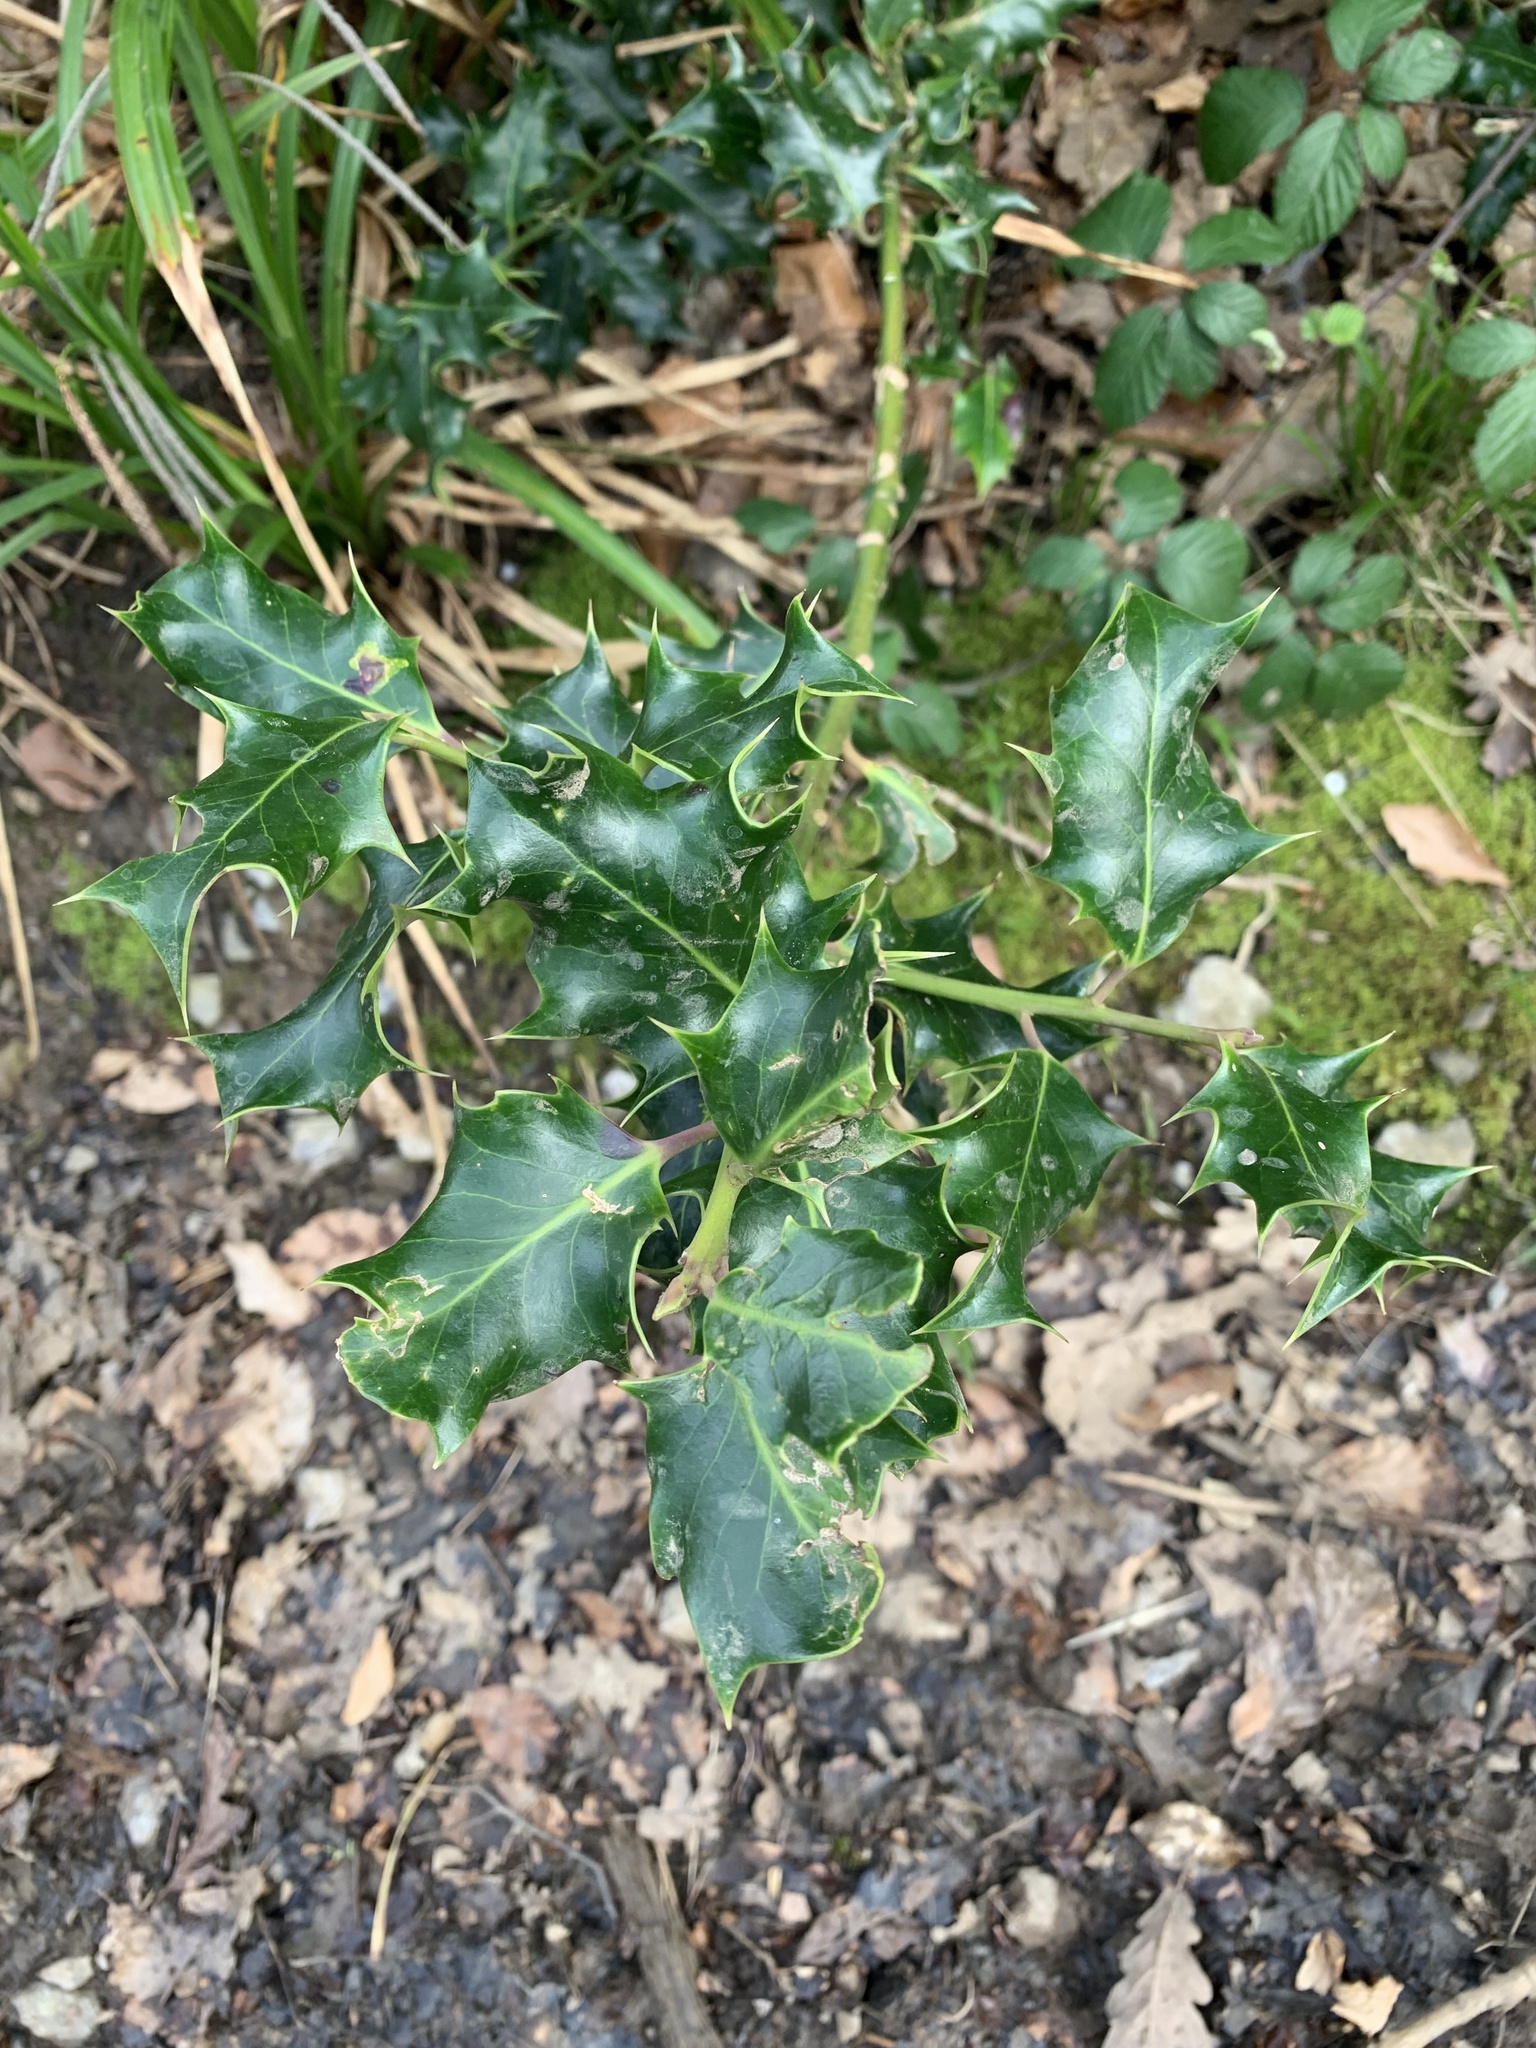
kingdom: Plantae
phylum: Tracheophyta
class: Magnoliopsida
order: Aquifoliales
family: Aquifoliaceae
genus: Ilex
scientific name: Ilex aquifolium
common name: English holly
